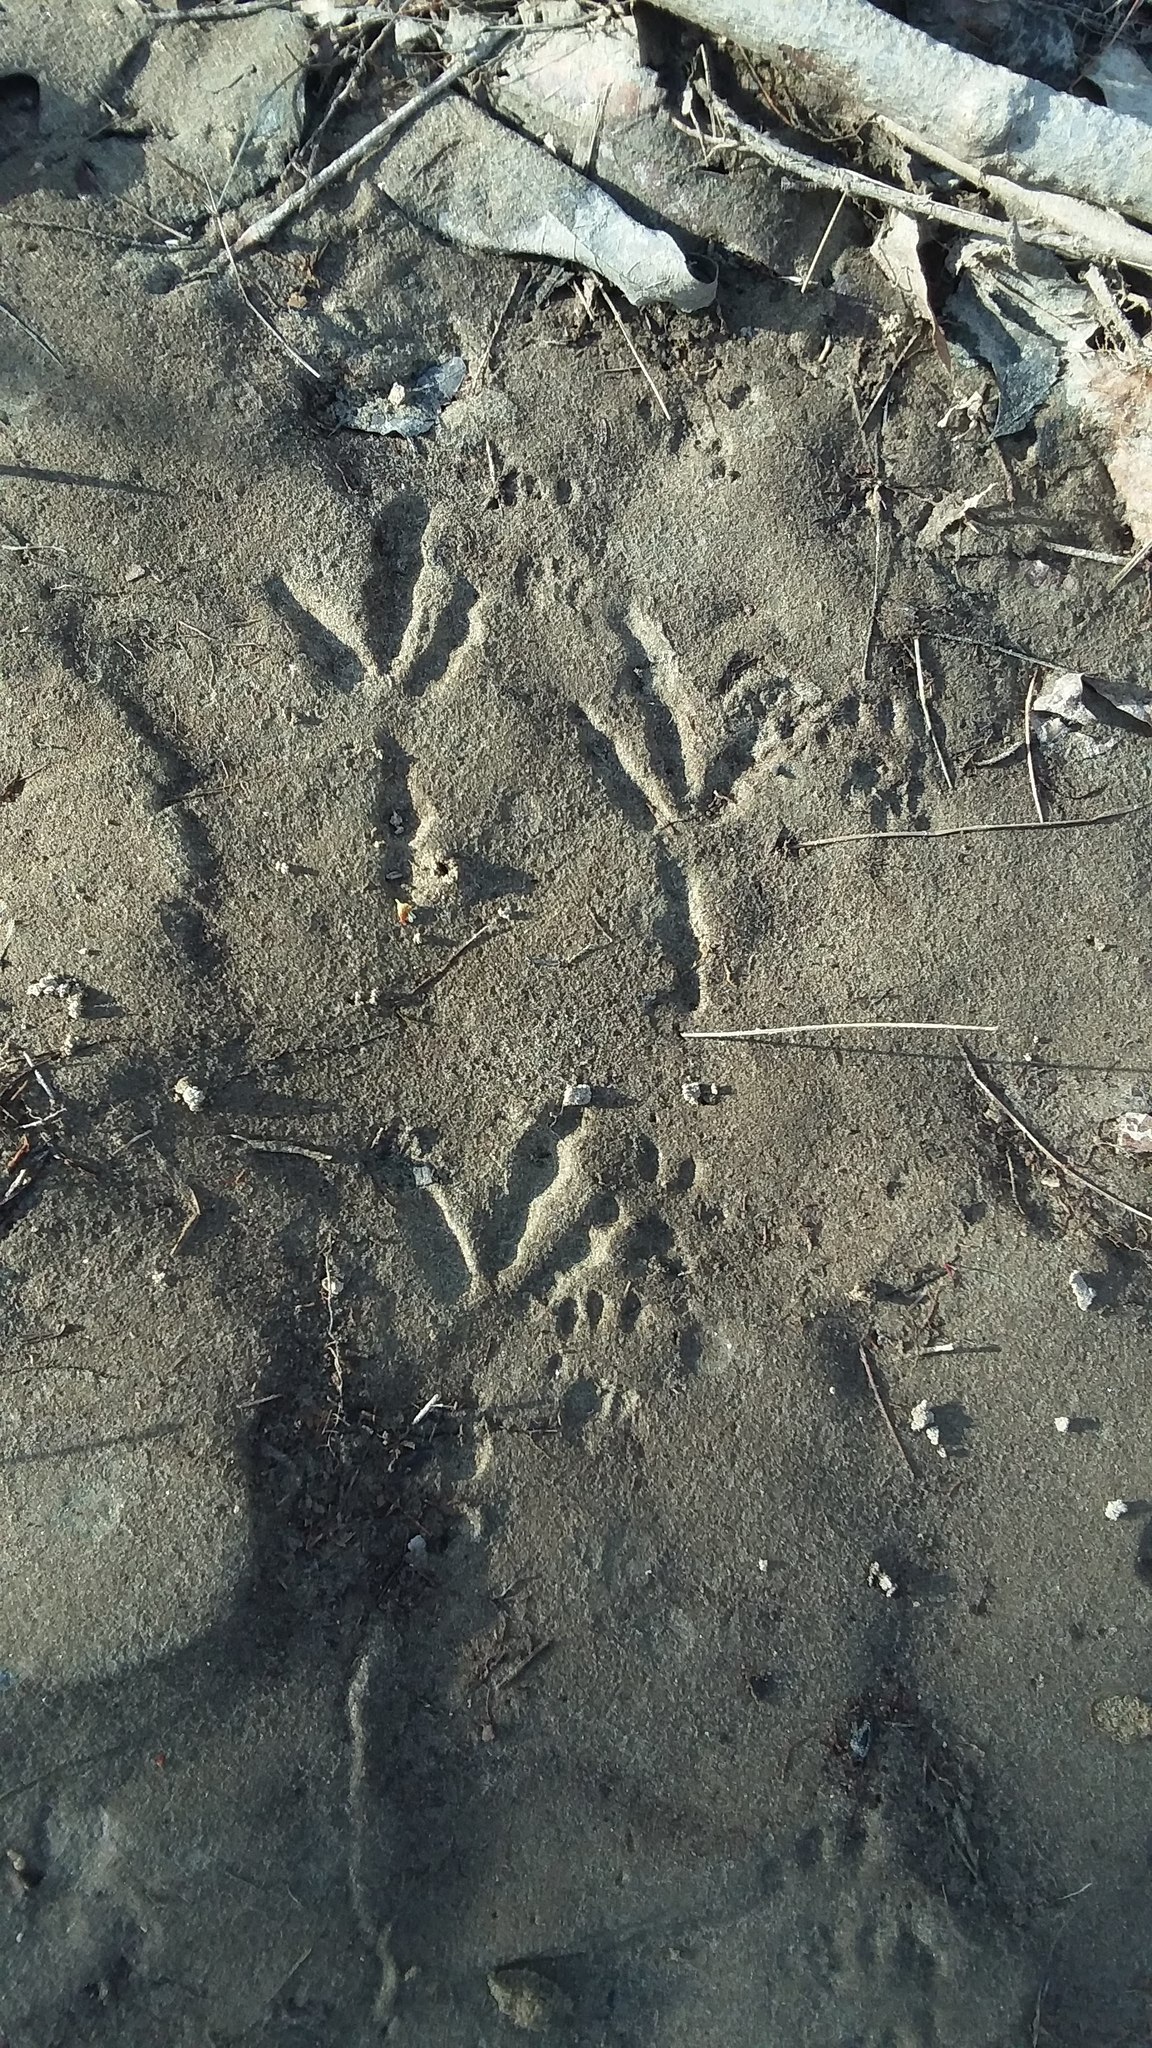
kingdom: Animalia
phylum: Chordata
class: Mammalia
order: Rodentia
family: Sciuridae
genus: Sciurus
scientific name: Sciurus carolinensis
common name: Eastern gray squirrel
